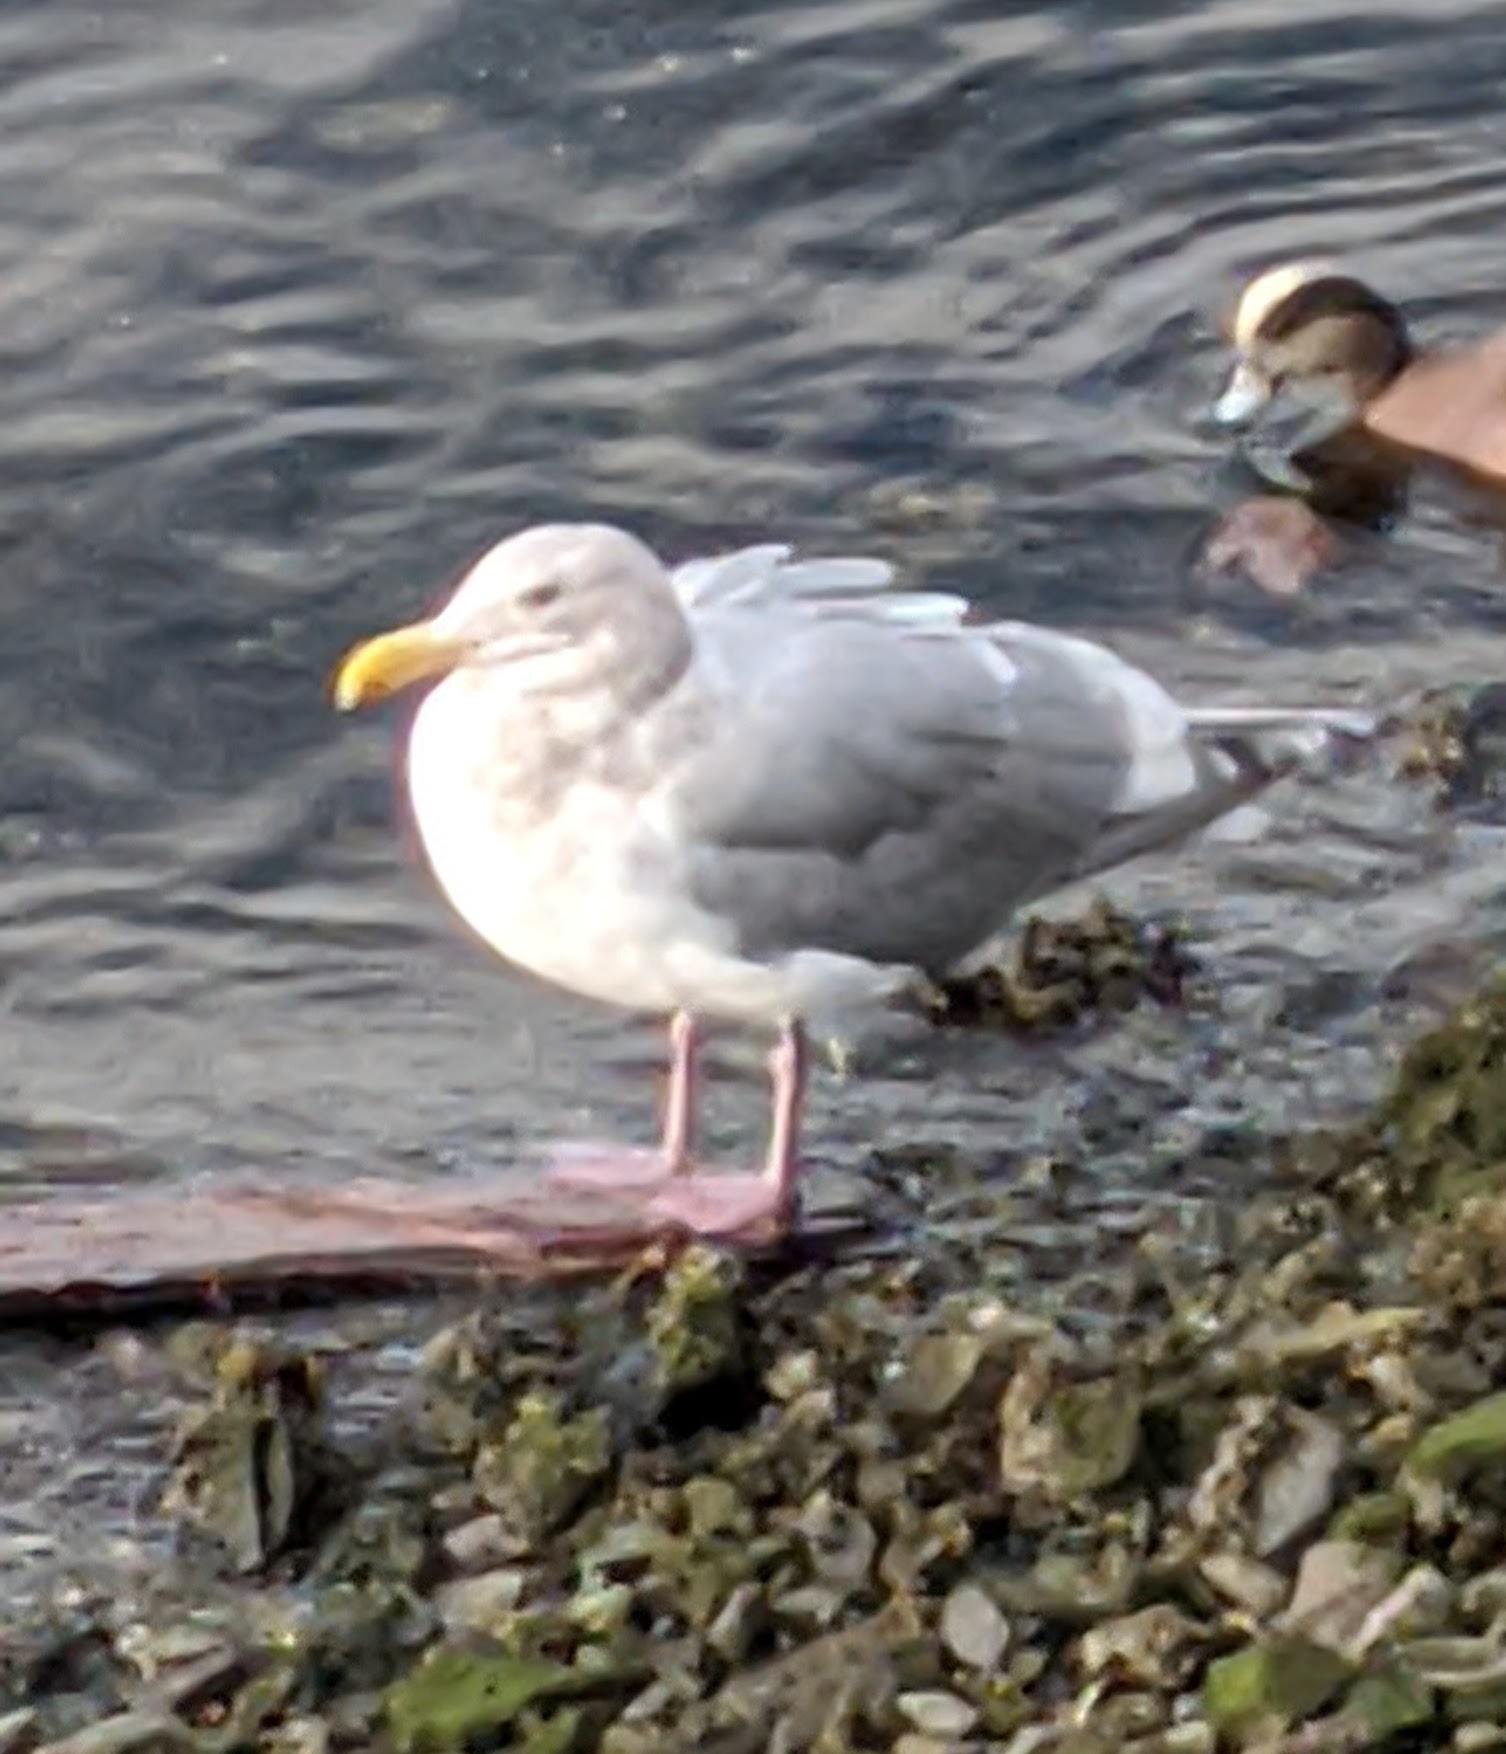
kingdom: Animalia
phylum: Chordata
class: Aves
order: Charadriiformes
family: Laridae
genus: Larus
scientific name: Larus glaucescens
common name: Glaucous-winged gull
